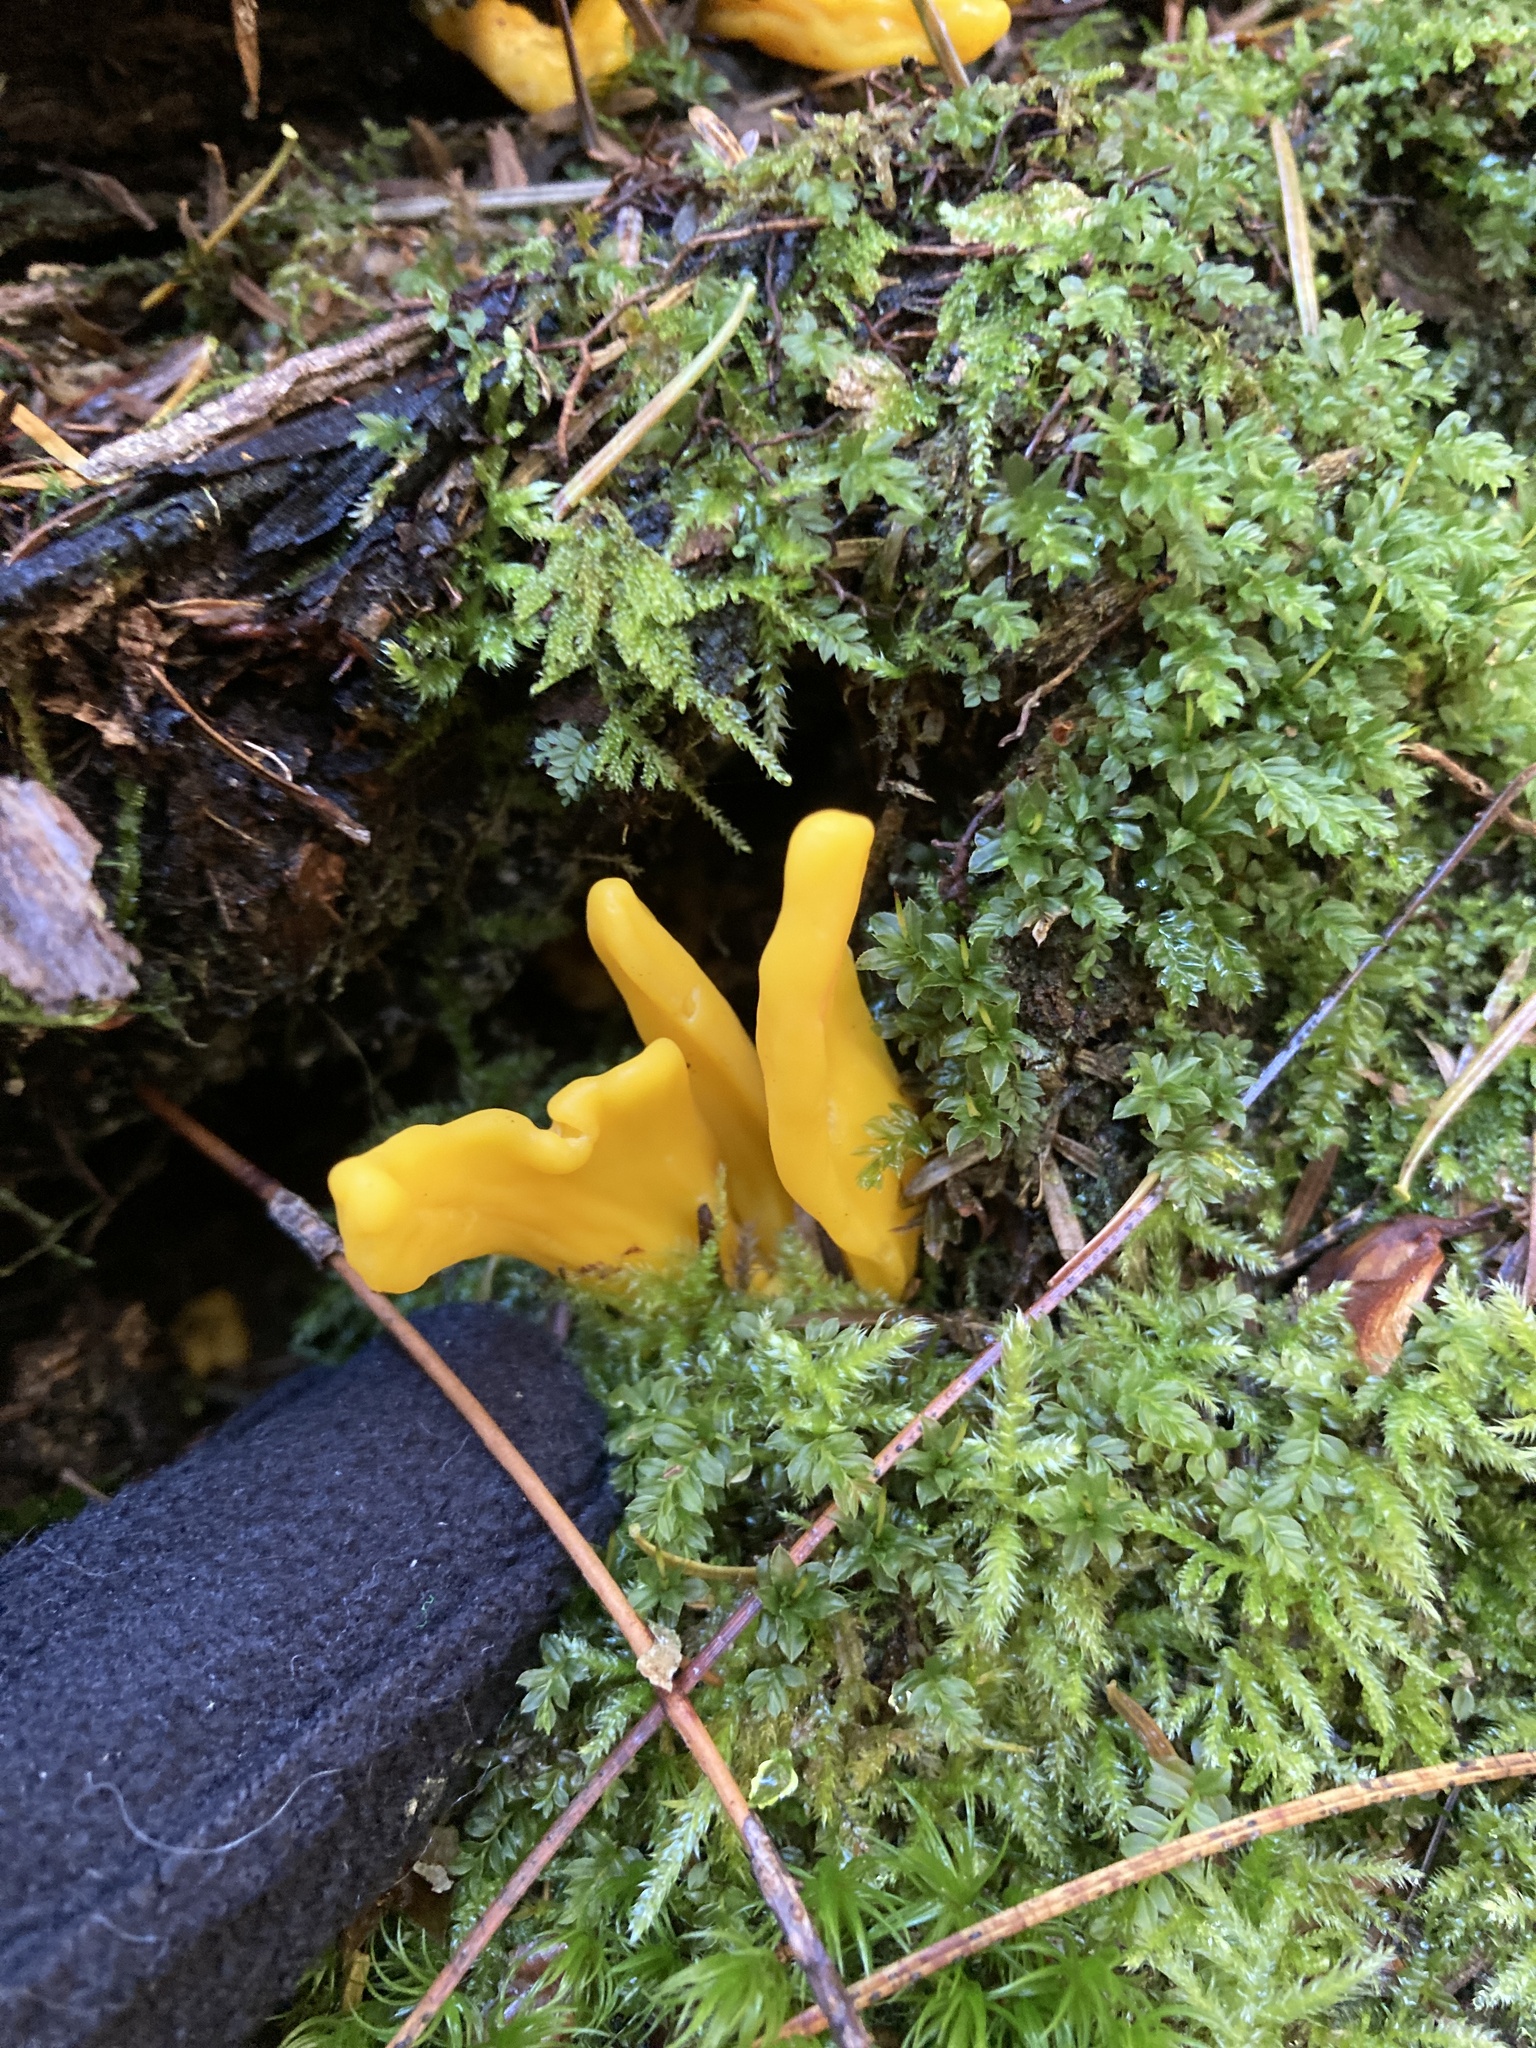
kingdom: Fungi
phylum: Ascomycota
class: Neolectomycetes
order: Neolectales
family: Neolectaceae
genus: Neolecta
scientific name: Neolecta irregularis
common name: Irregular earth tongue
